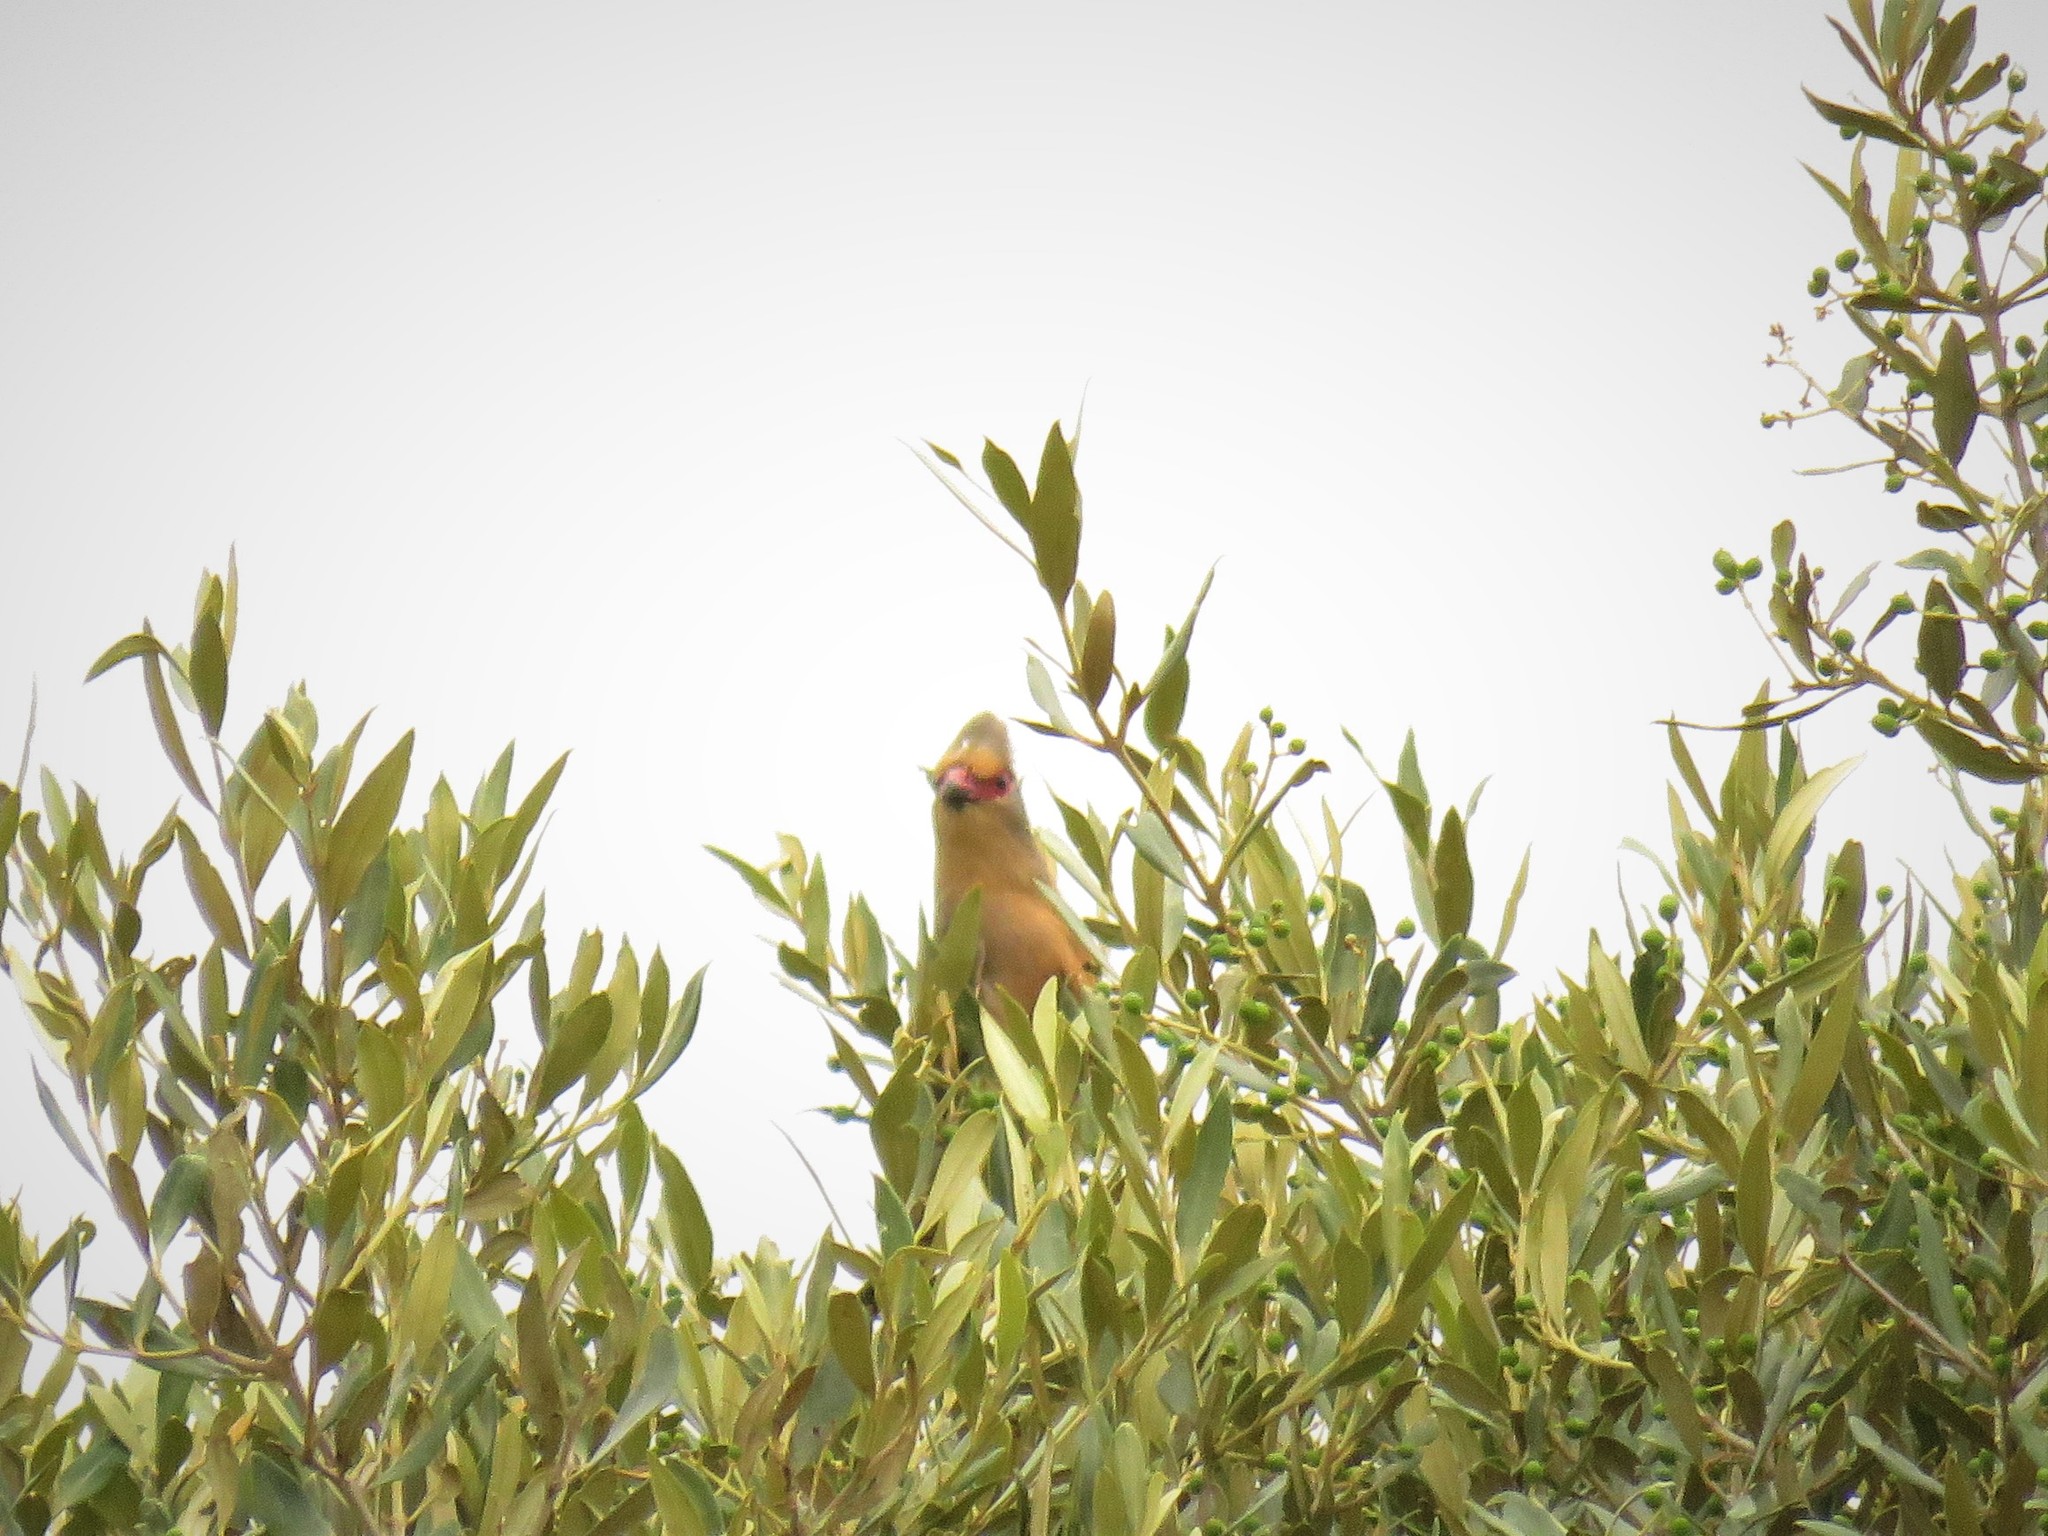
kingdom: Animalia
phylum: Chordata
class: Aves
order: Coliiformes
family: Coliidae
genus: Urocolius
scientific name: Urocolius indicus
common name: Red-faced mousebird
